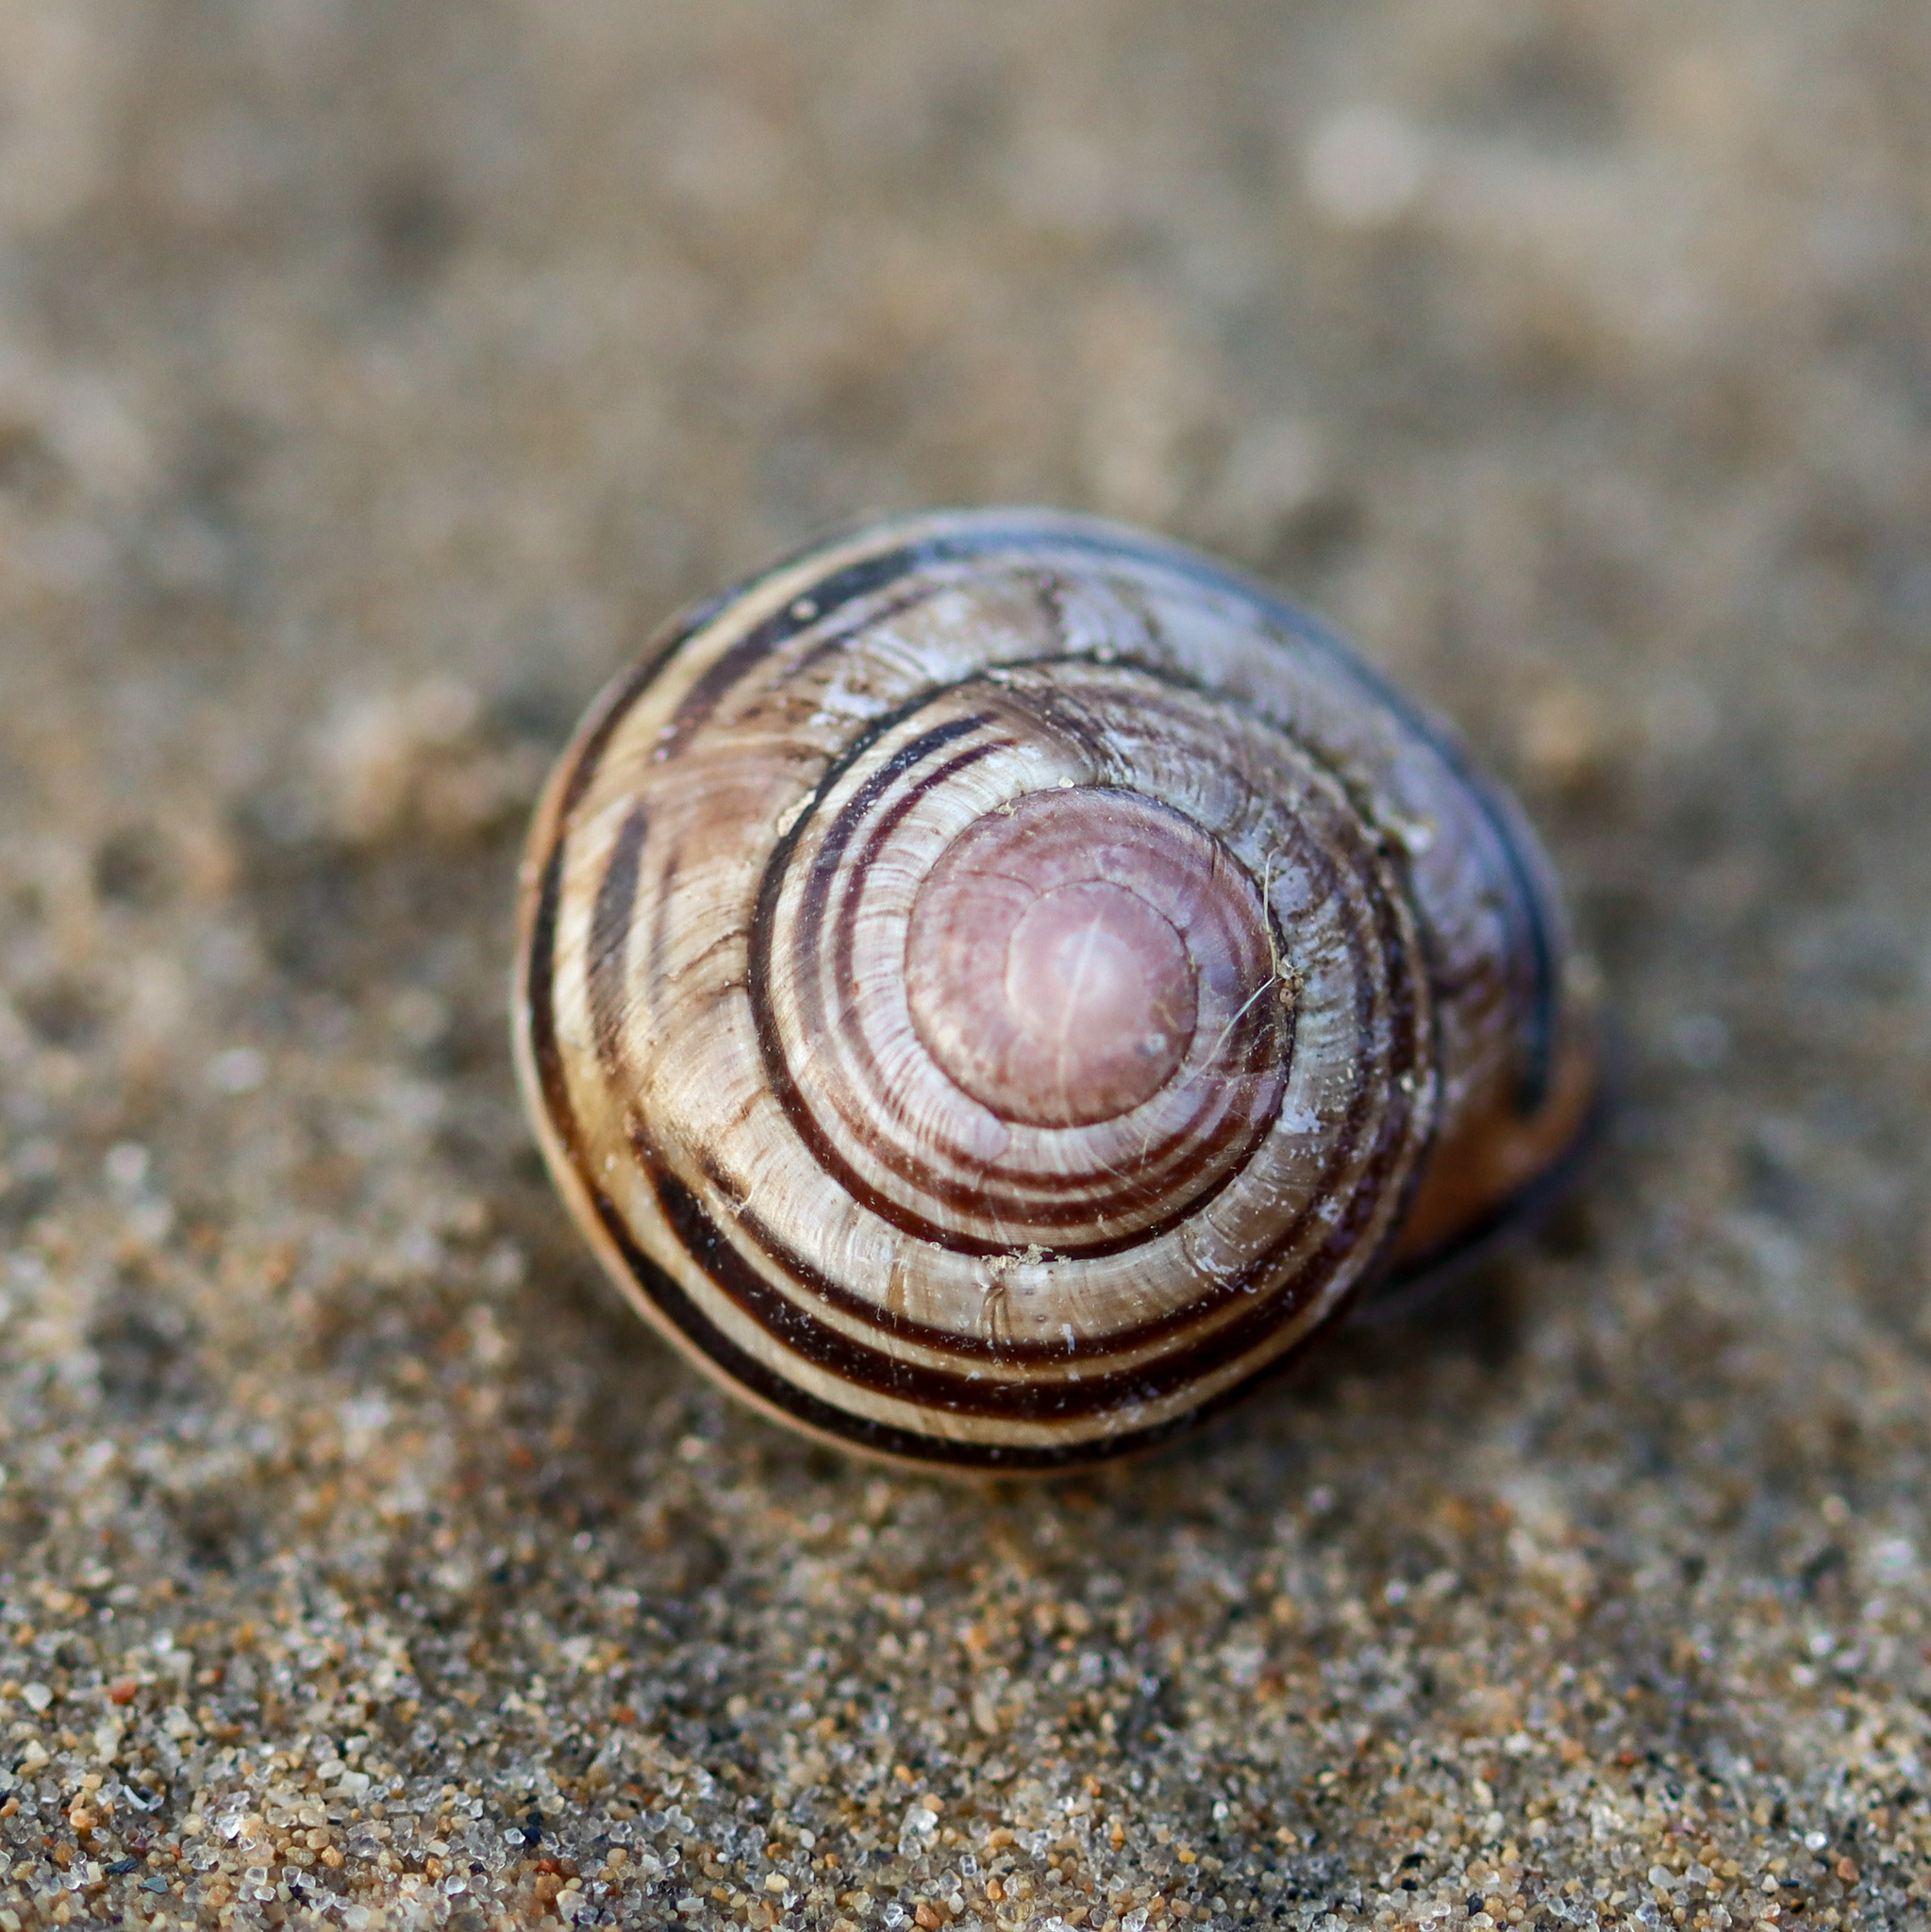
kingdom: Animalia
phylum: Mollusca
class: Gastropoda
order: Stylommatophora
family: Helicidae
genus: Cepaea
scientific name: Cepaea nemoralis
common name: Grovesnail
